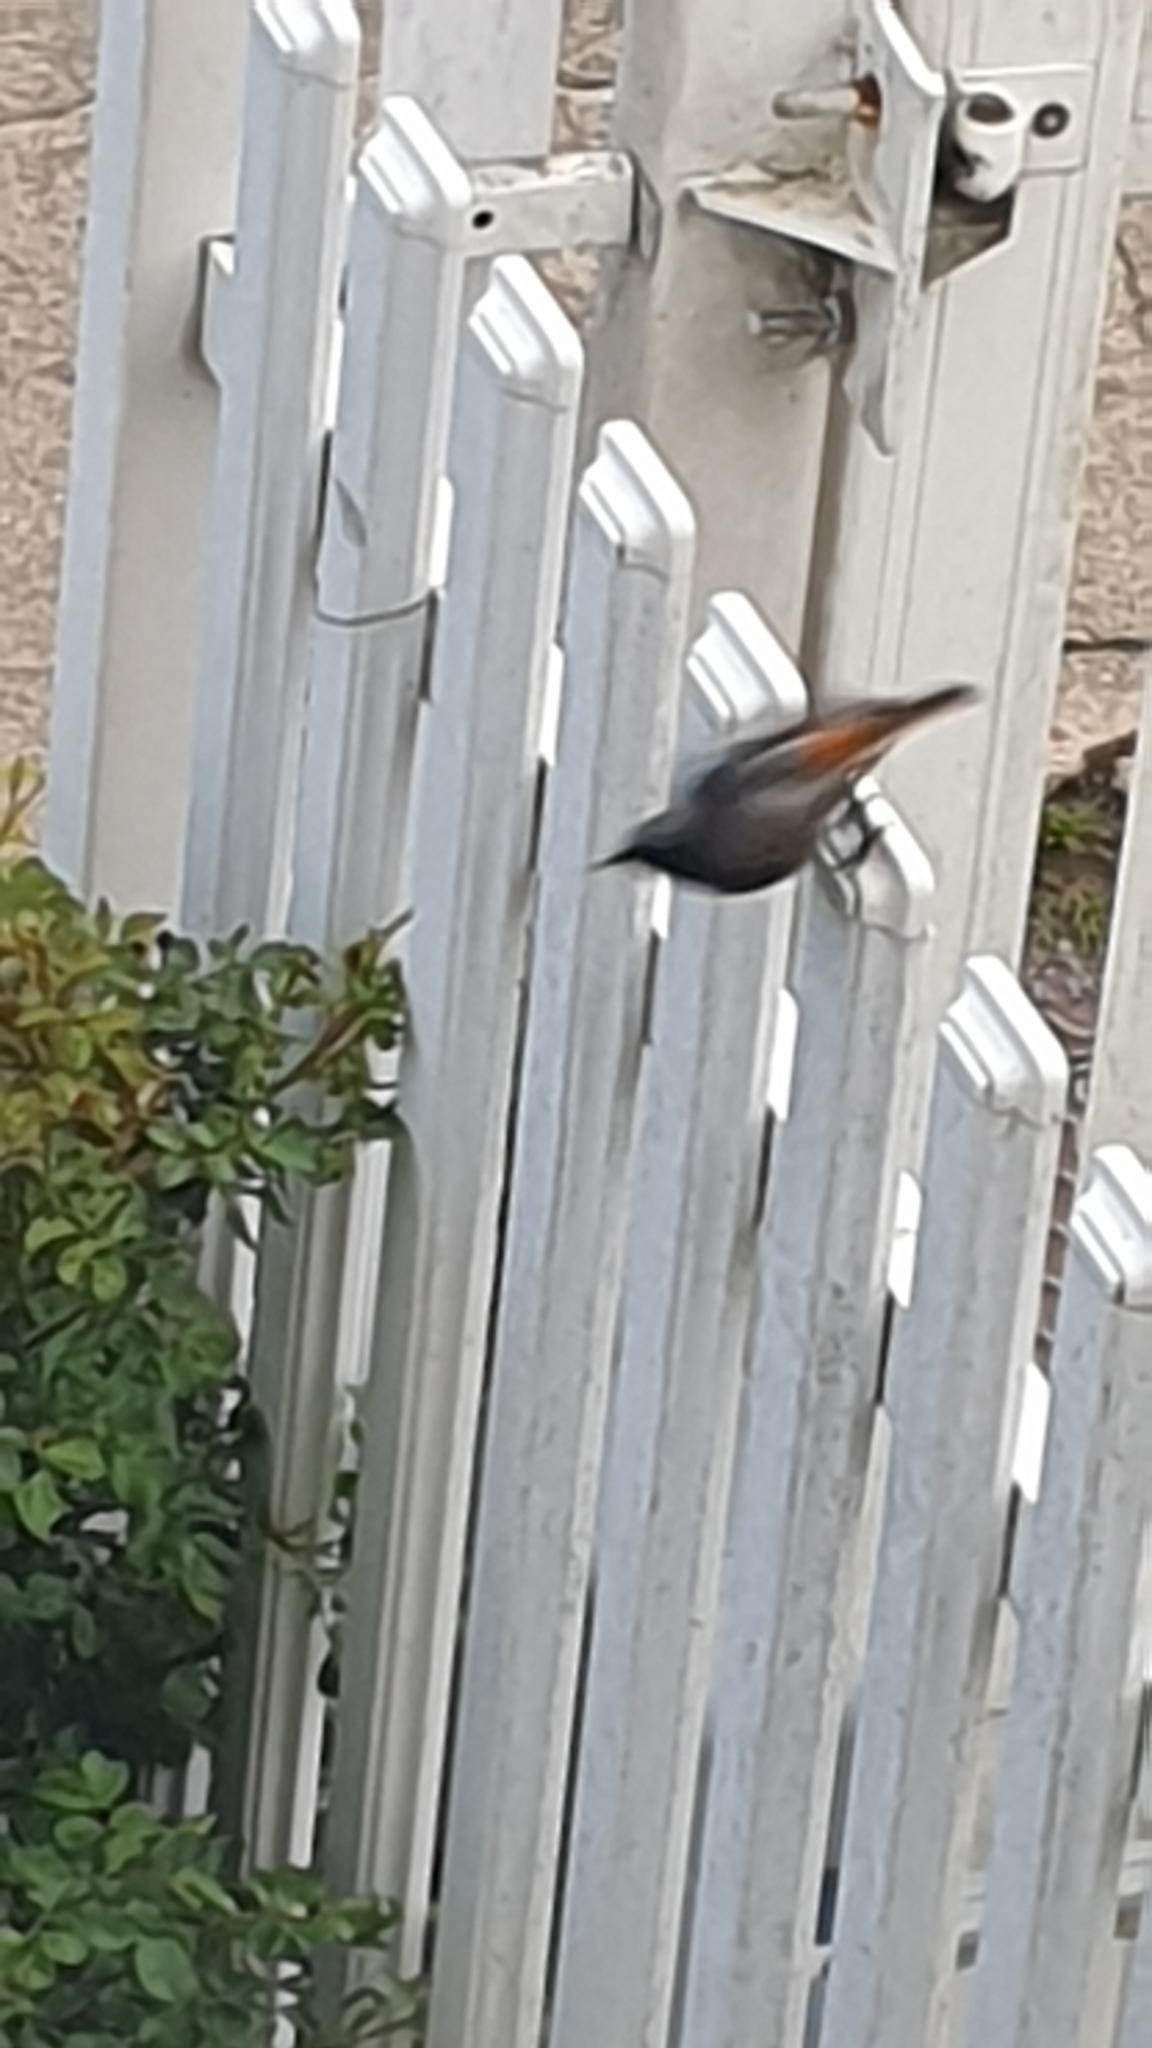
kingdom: Animalia
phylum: Chordata
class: Aves
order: Passeriformes
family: Muscicapidae
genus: Phoenicurus
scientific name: Phoenicurus ochruros
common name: Black redstart
